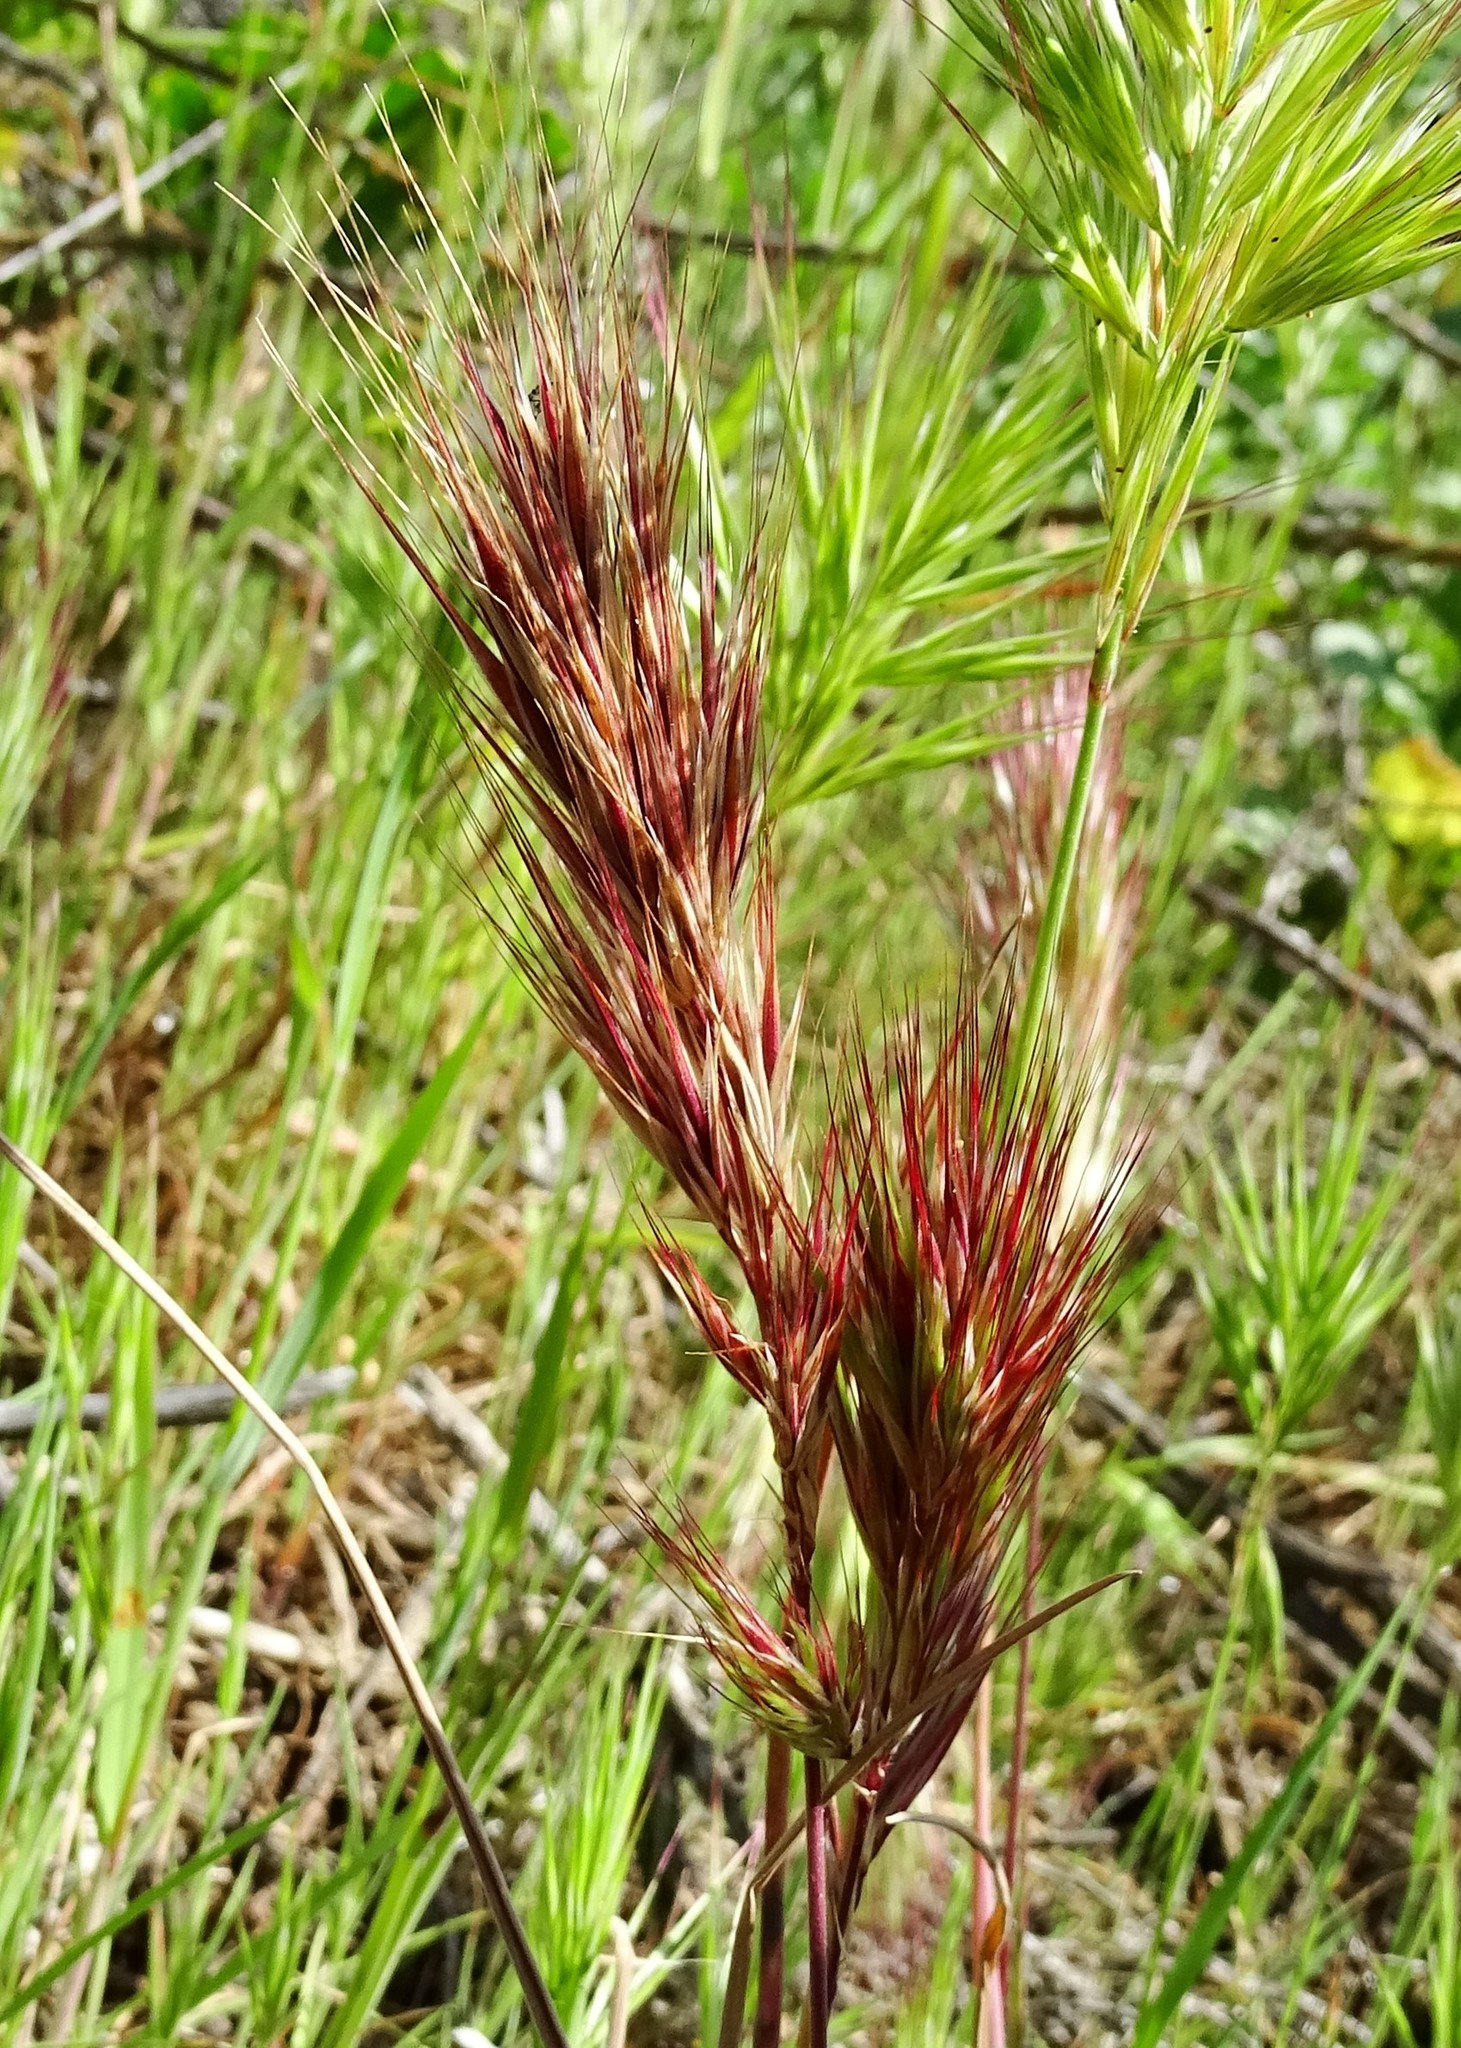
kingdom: Plantae
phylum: Tracheophyta
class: Liliopsida
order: Poales
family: Poaceae
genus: Bromus
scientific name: Bromus rubens
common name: Red brome
